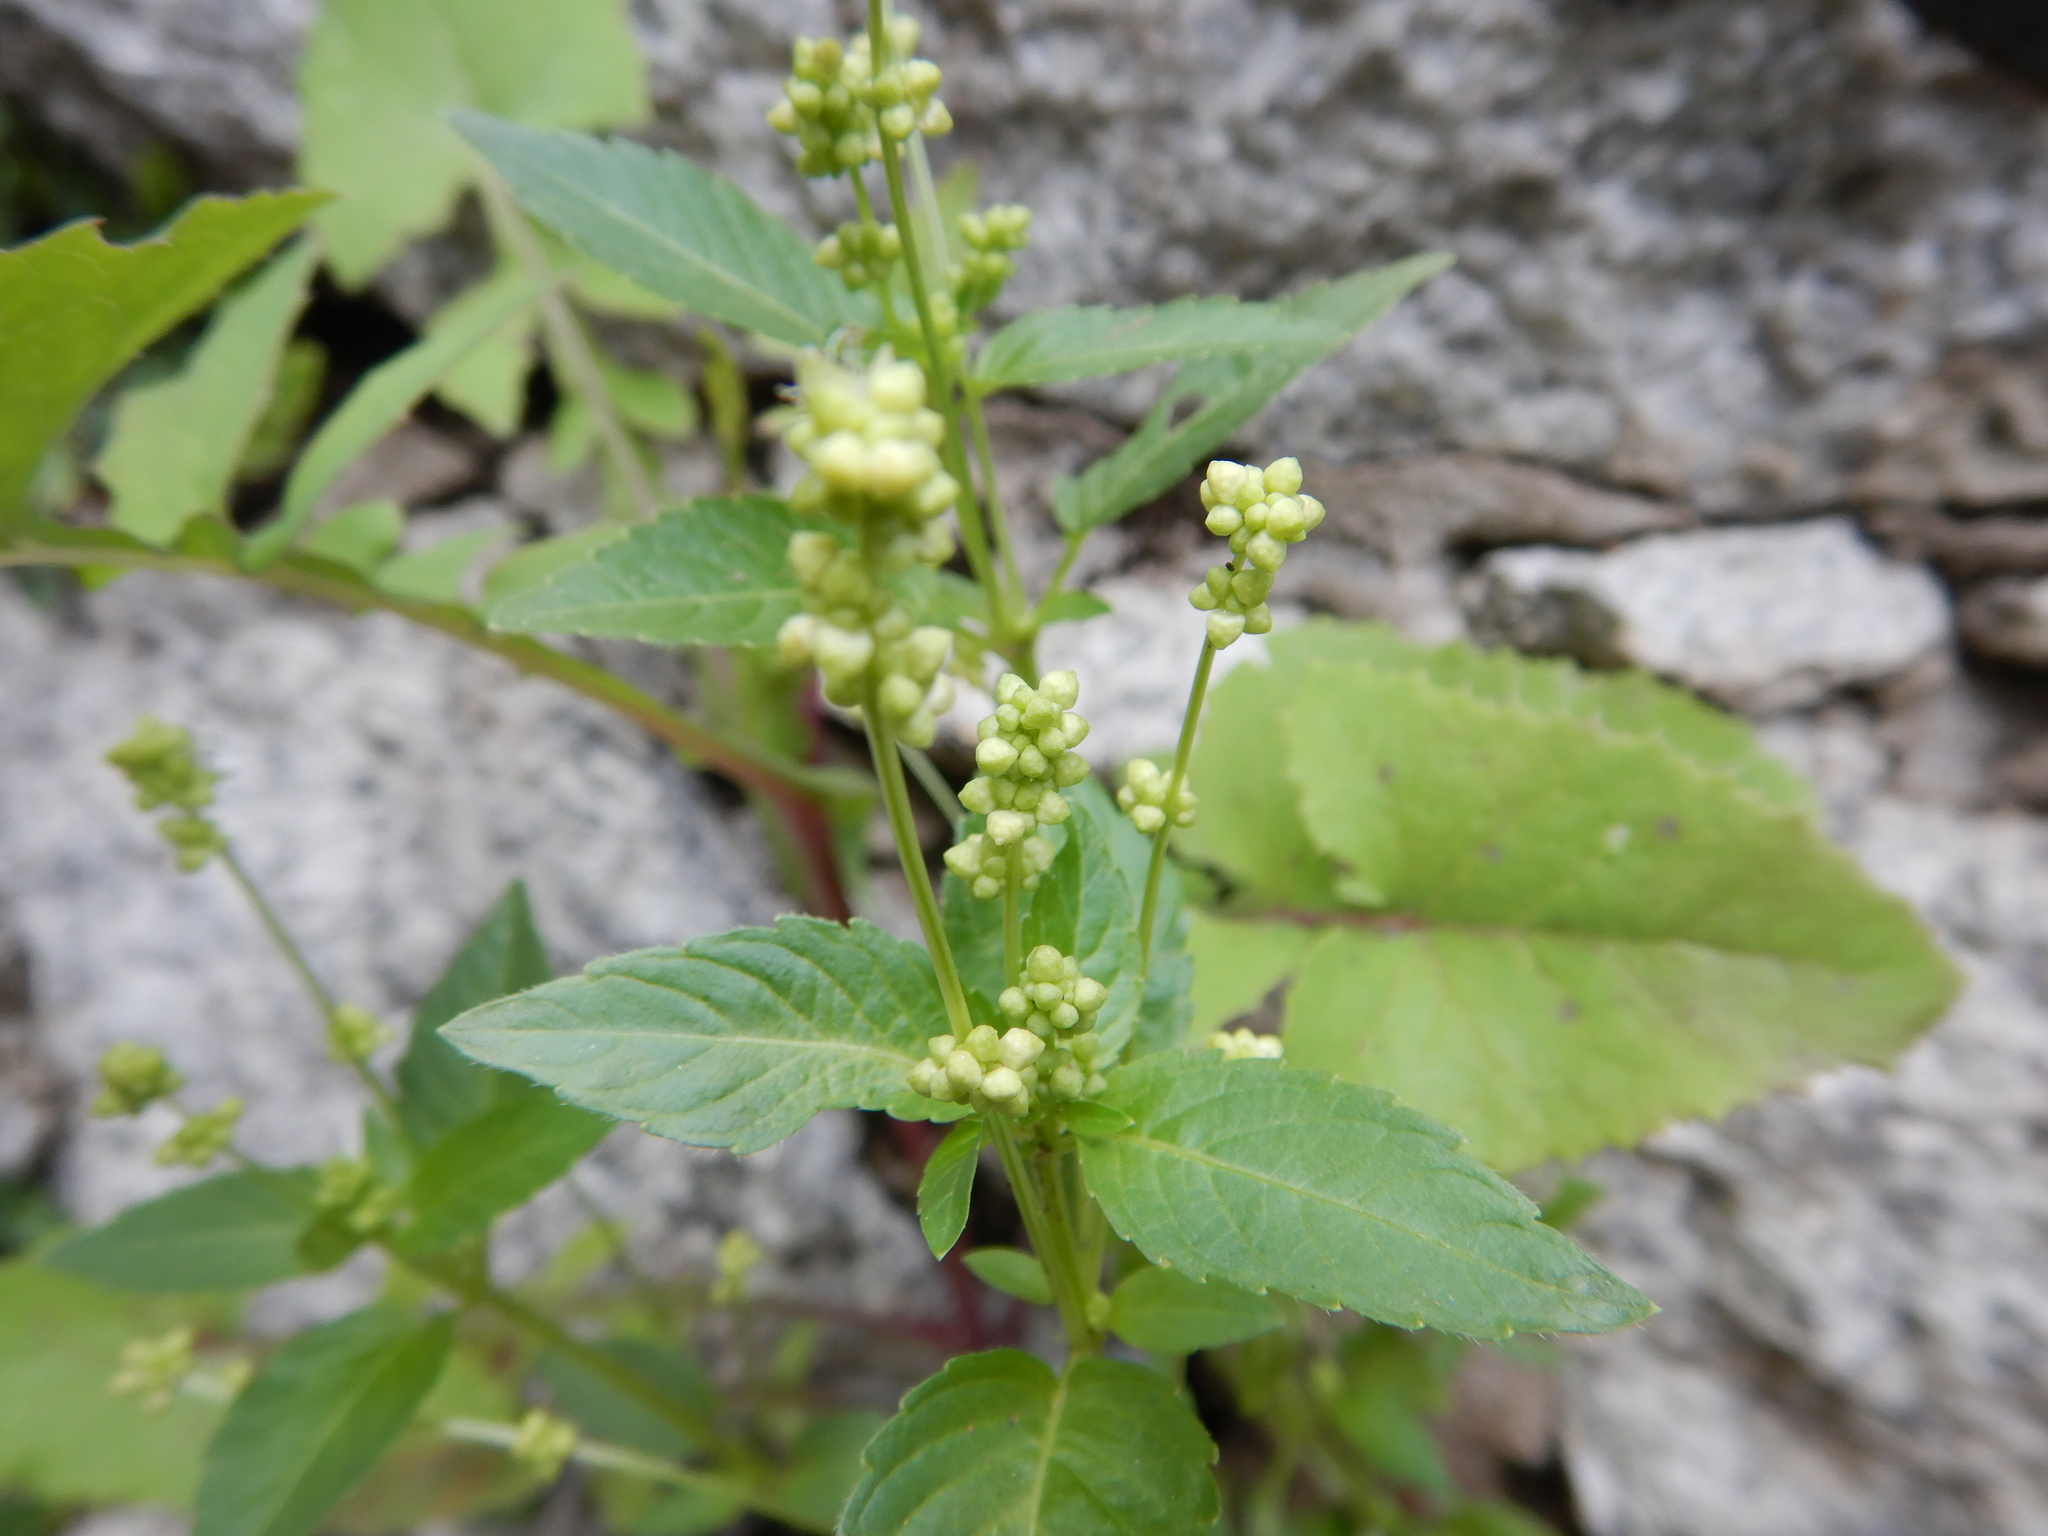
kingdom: Plantae
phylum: Tracheophyta
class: Magnoliopsida
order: Malpighiales
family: Euphorbiaceae
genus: Mercurialis
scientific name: Mercurialis annua
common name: Annual mercury
